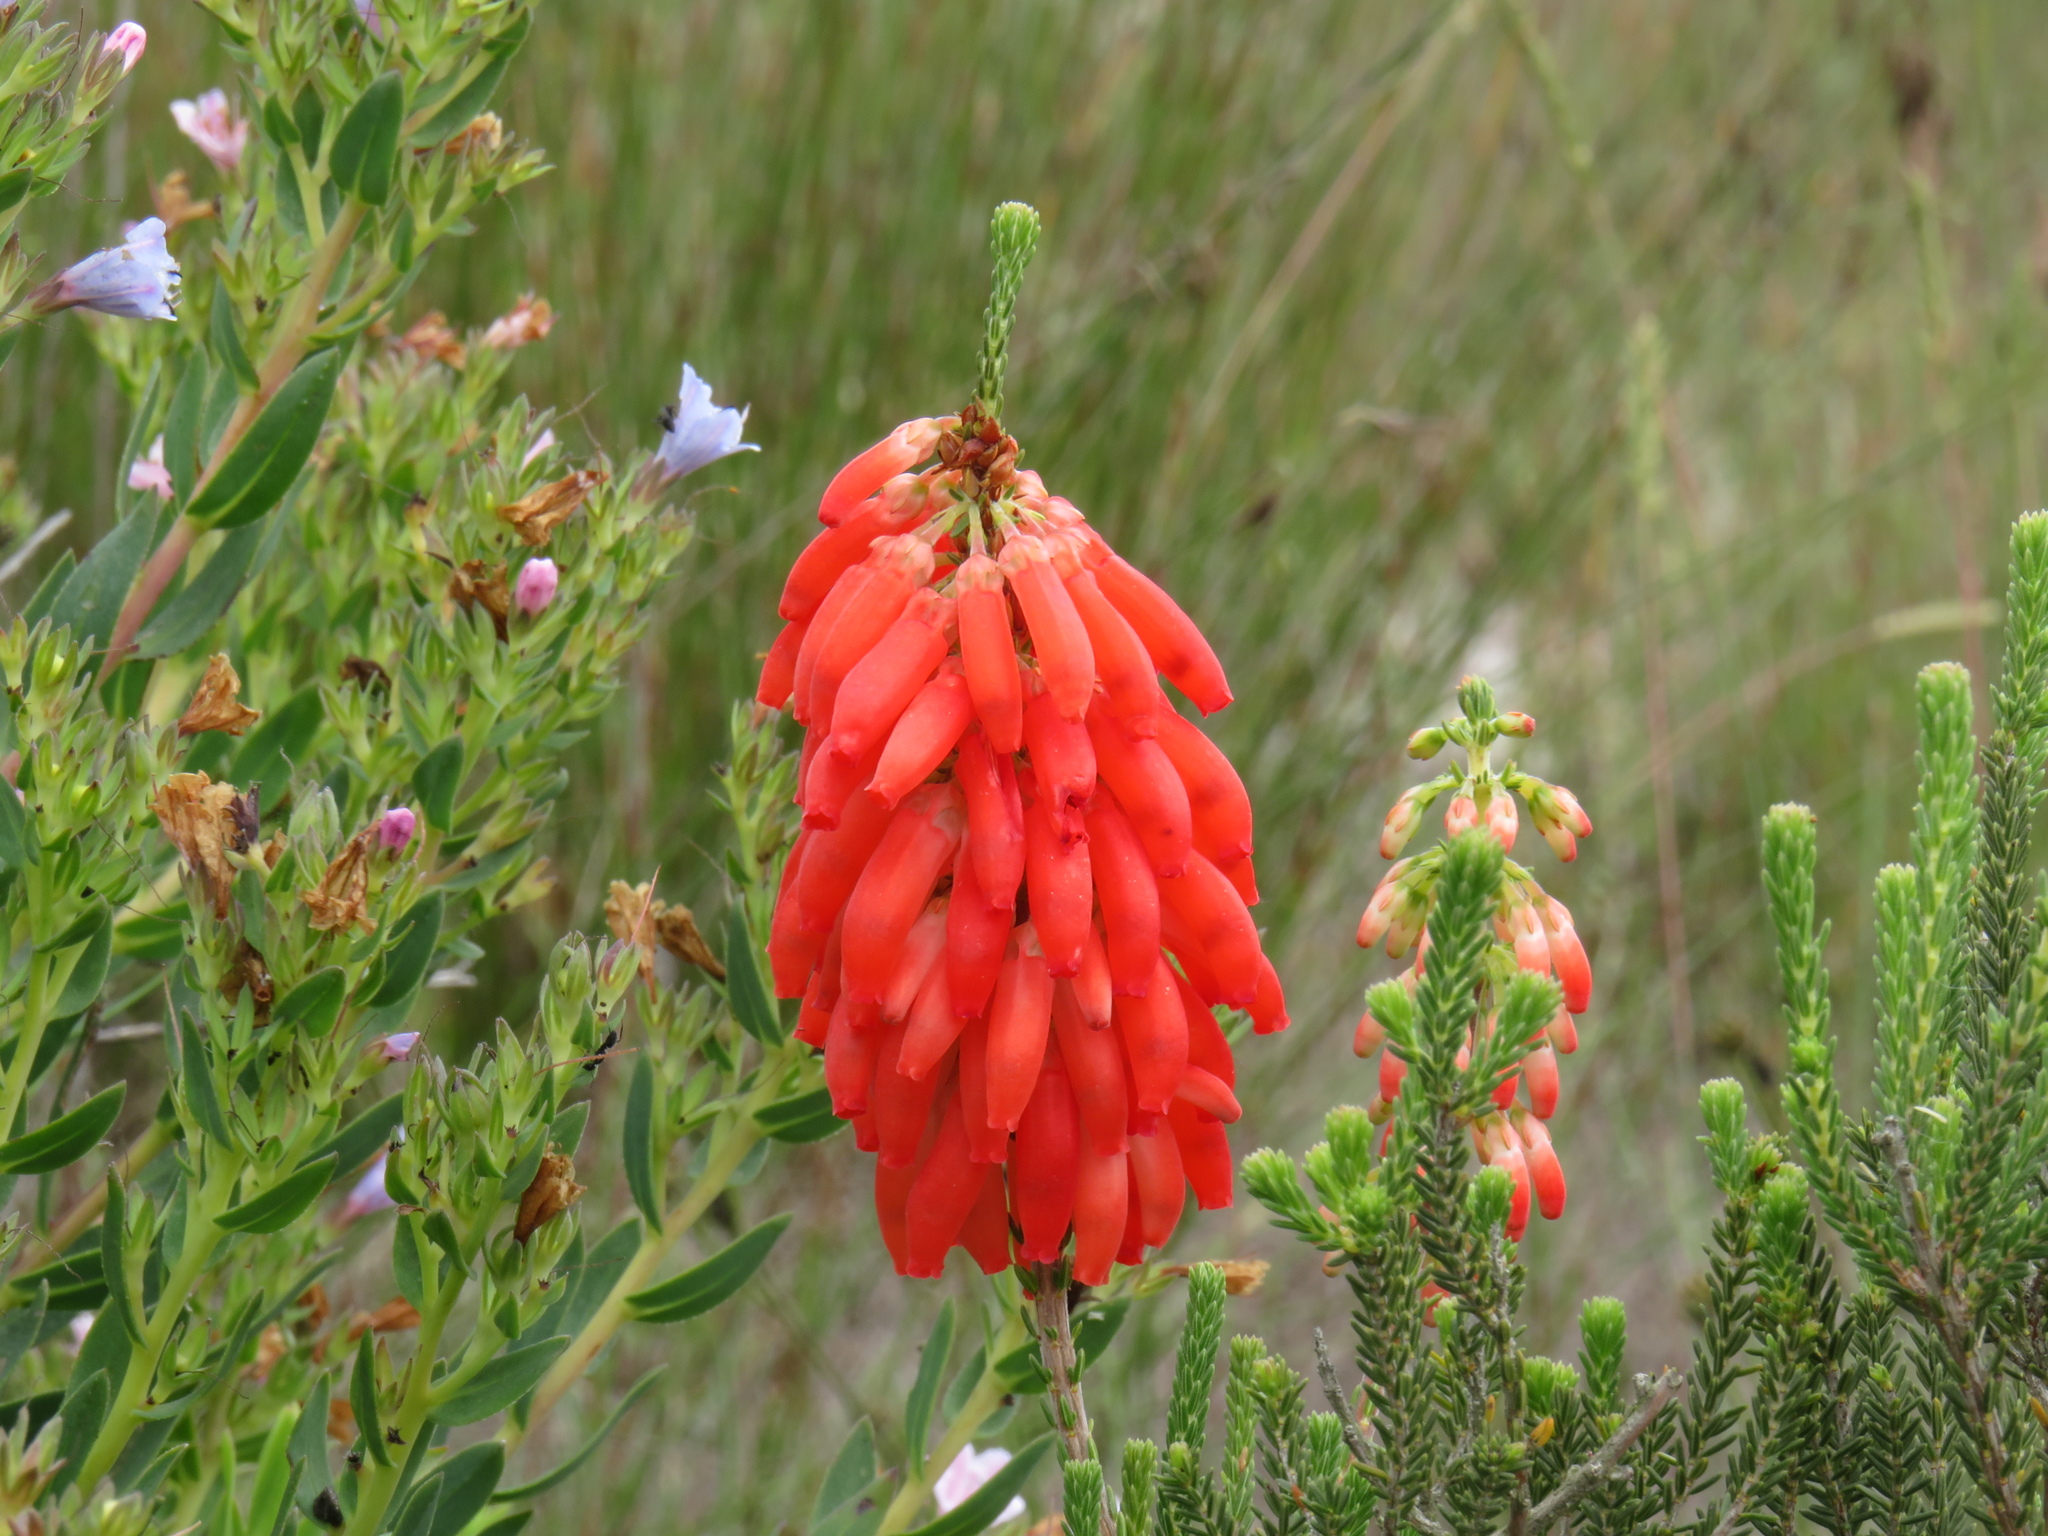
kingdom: Plantae
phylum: Tracheophyta
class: Magnoliopsida
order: Ericales
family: Ericaceae
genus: Erica
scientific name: Erica mammosa
